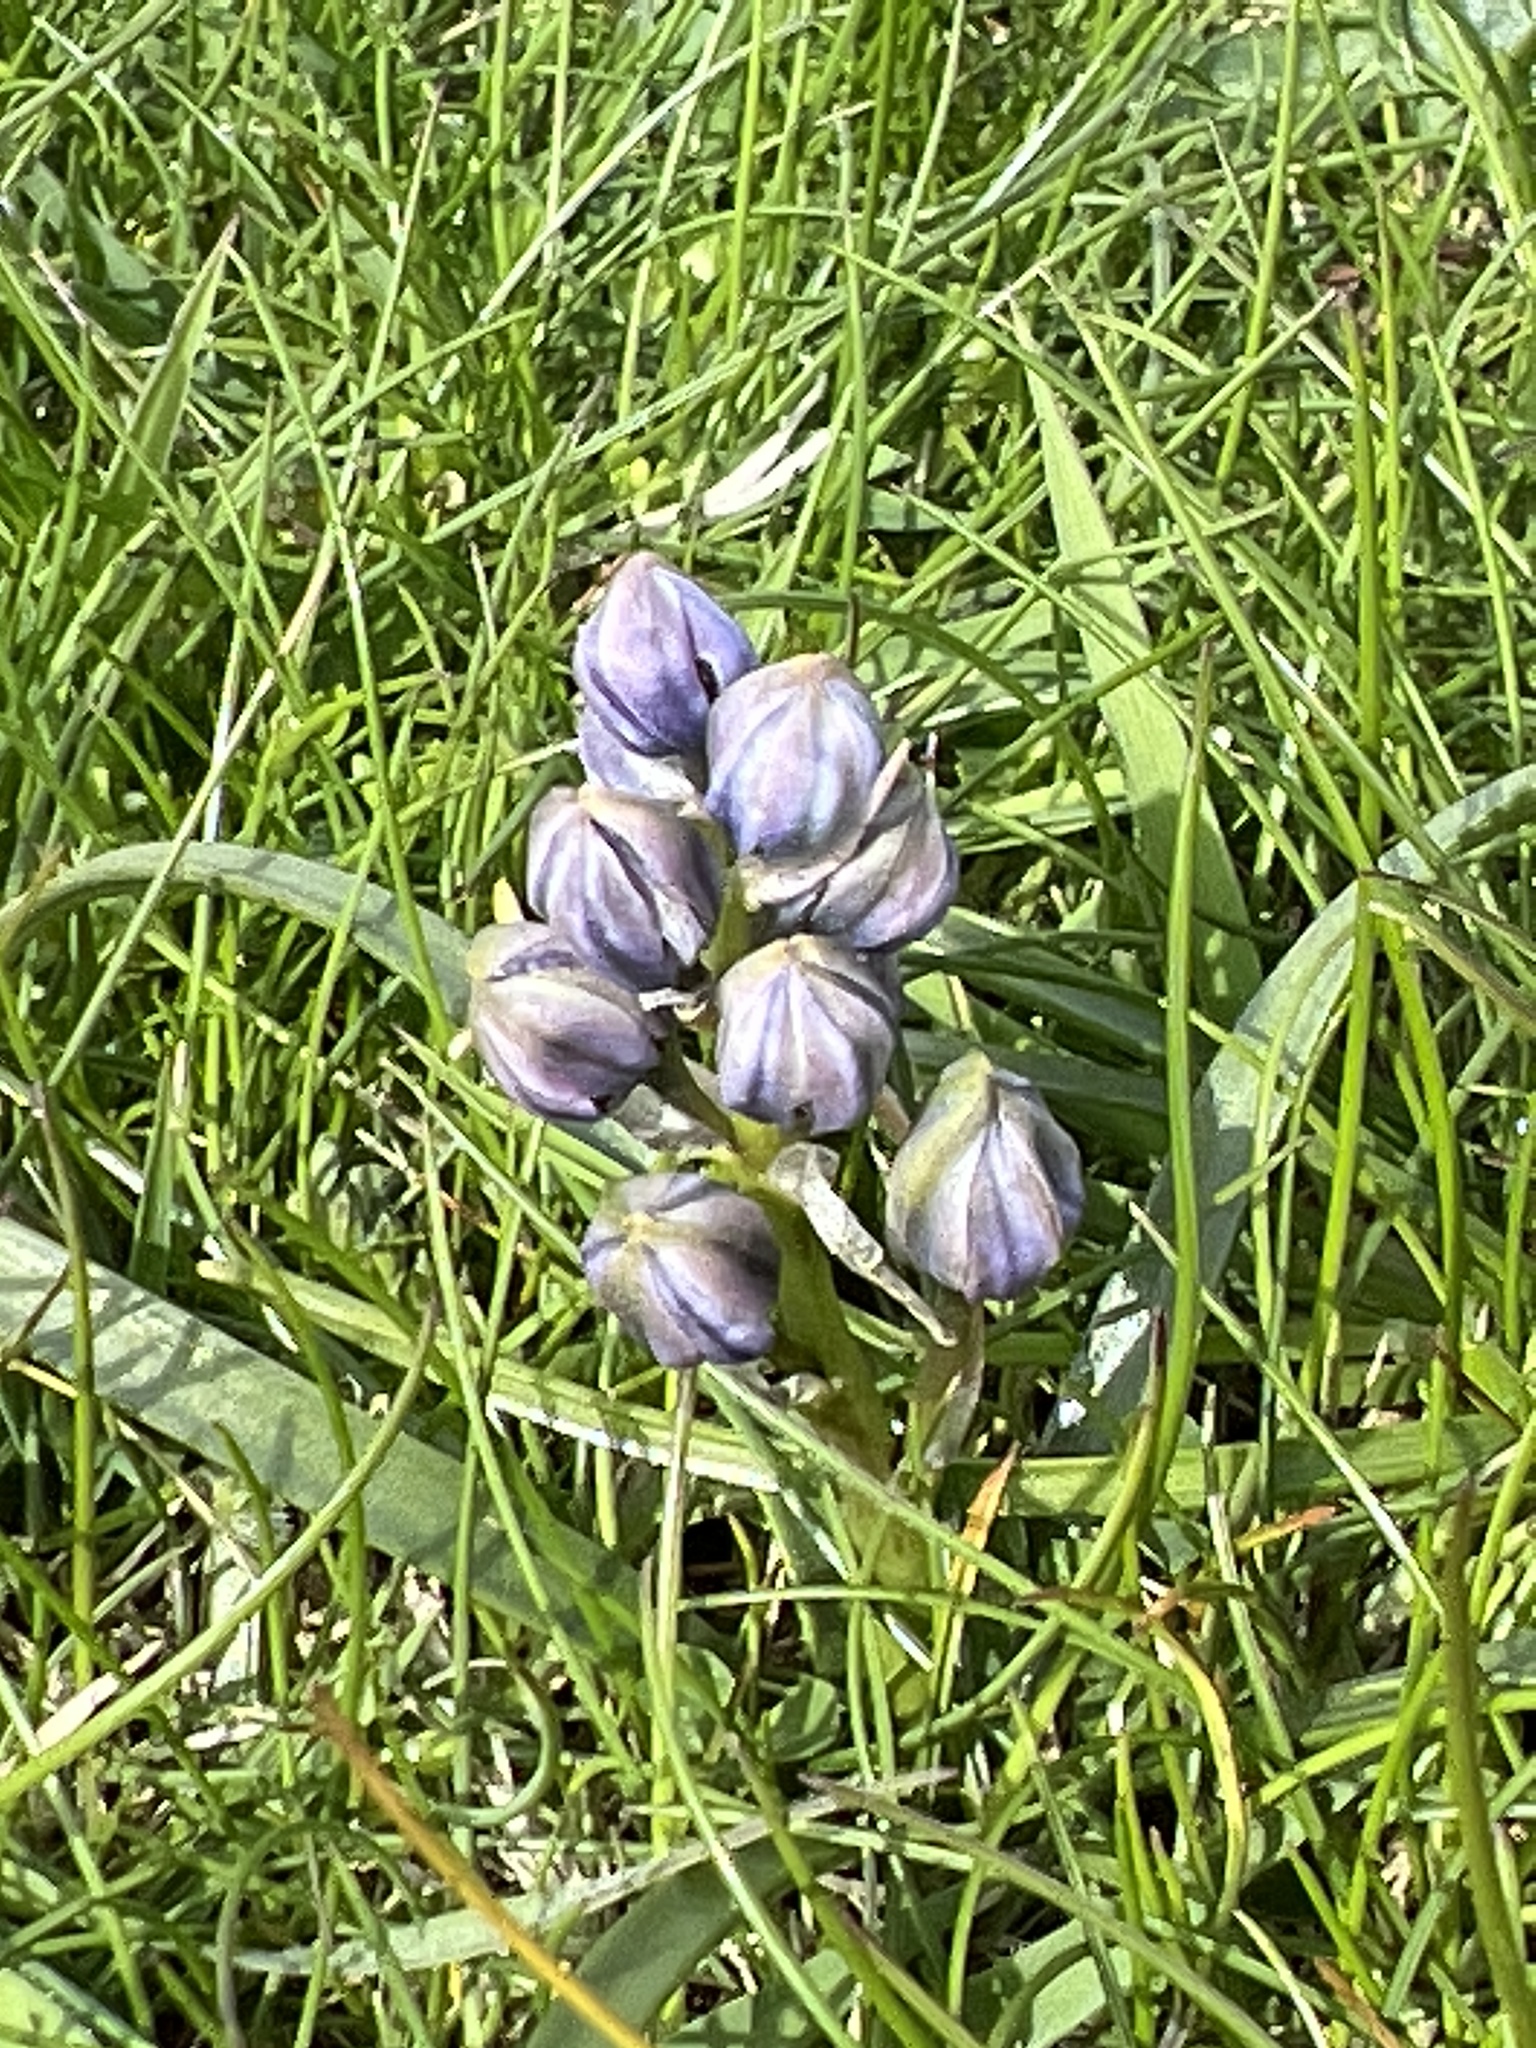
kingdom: Plantae
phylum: Tracheophyta
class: Liliopsida
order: Asparagales
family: Asparagaceae
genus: Scilla
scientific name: Scilla verna
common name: Spring squill
